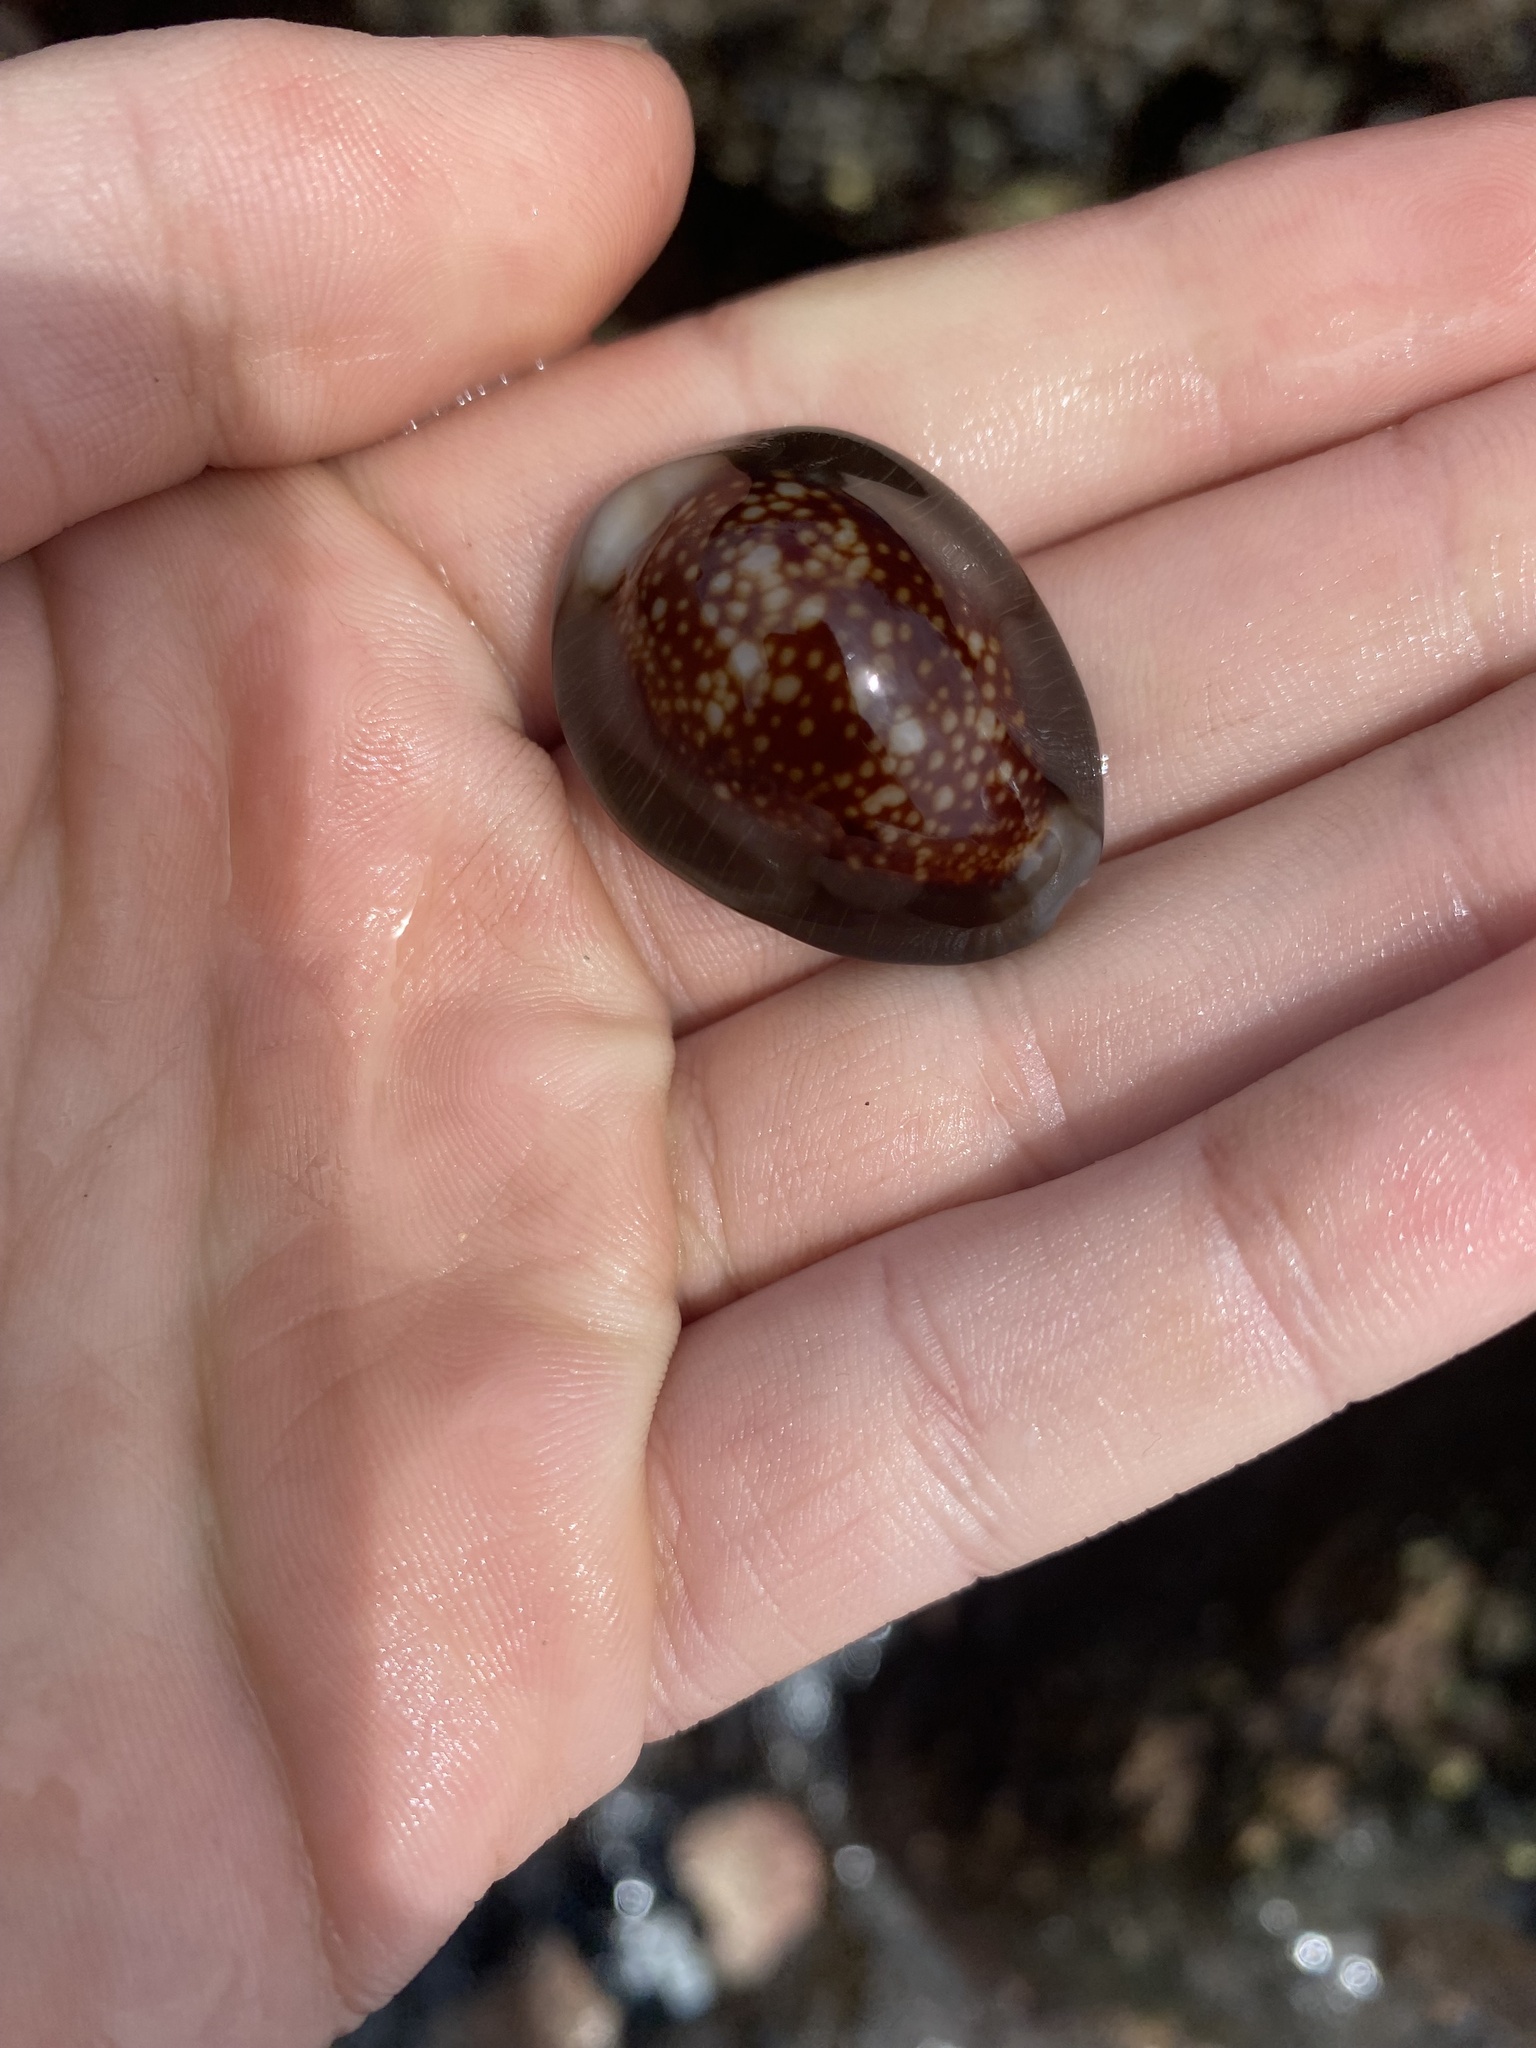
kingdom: Animalia
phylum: Mollusca
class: Gastropoda
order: Littorinimorpha
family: Cypraeidae
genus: Monetaria
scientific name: Monetaria caputophidii
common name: Snake's head cowry
